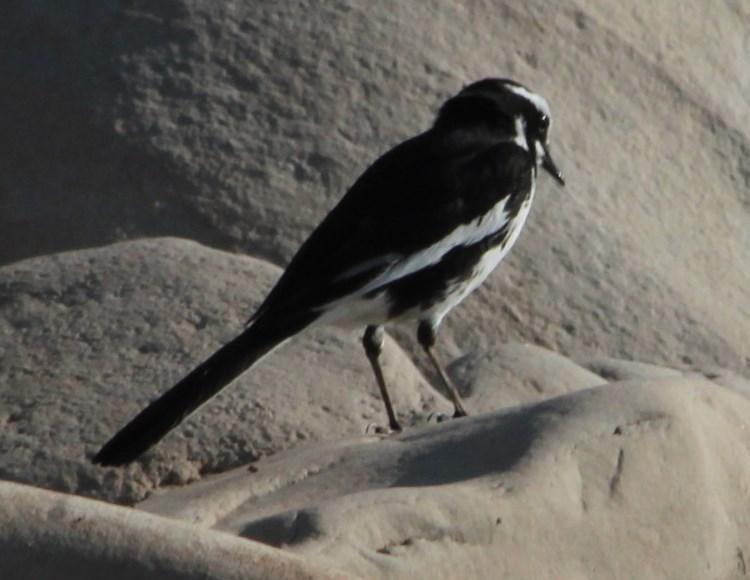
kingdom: Animalia
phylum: Chordata
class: Aves
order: Passeriformes
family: Motacillidae
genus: Motacilla
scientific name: Motacilla aguimp
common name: African pied wagtail
